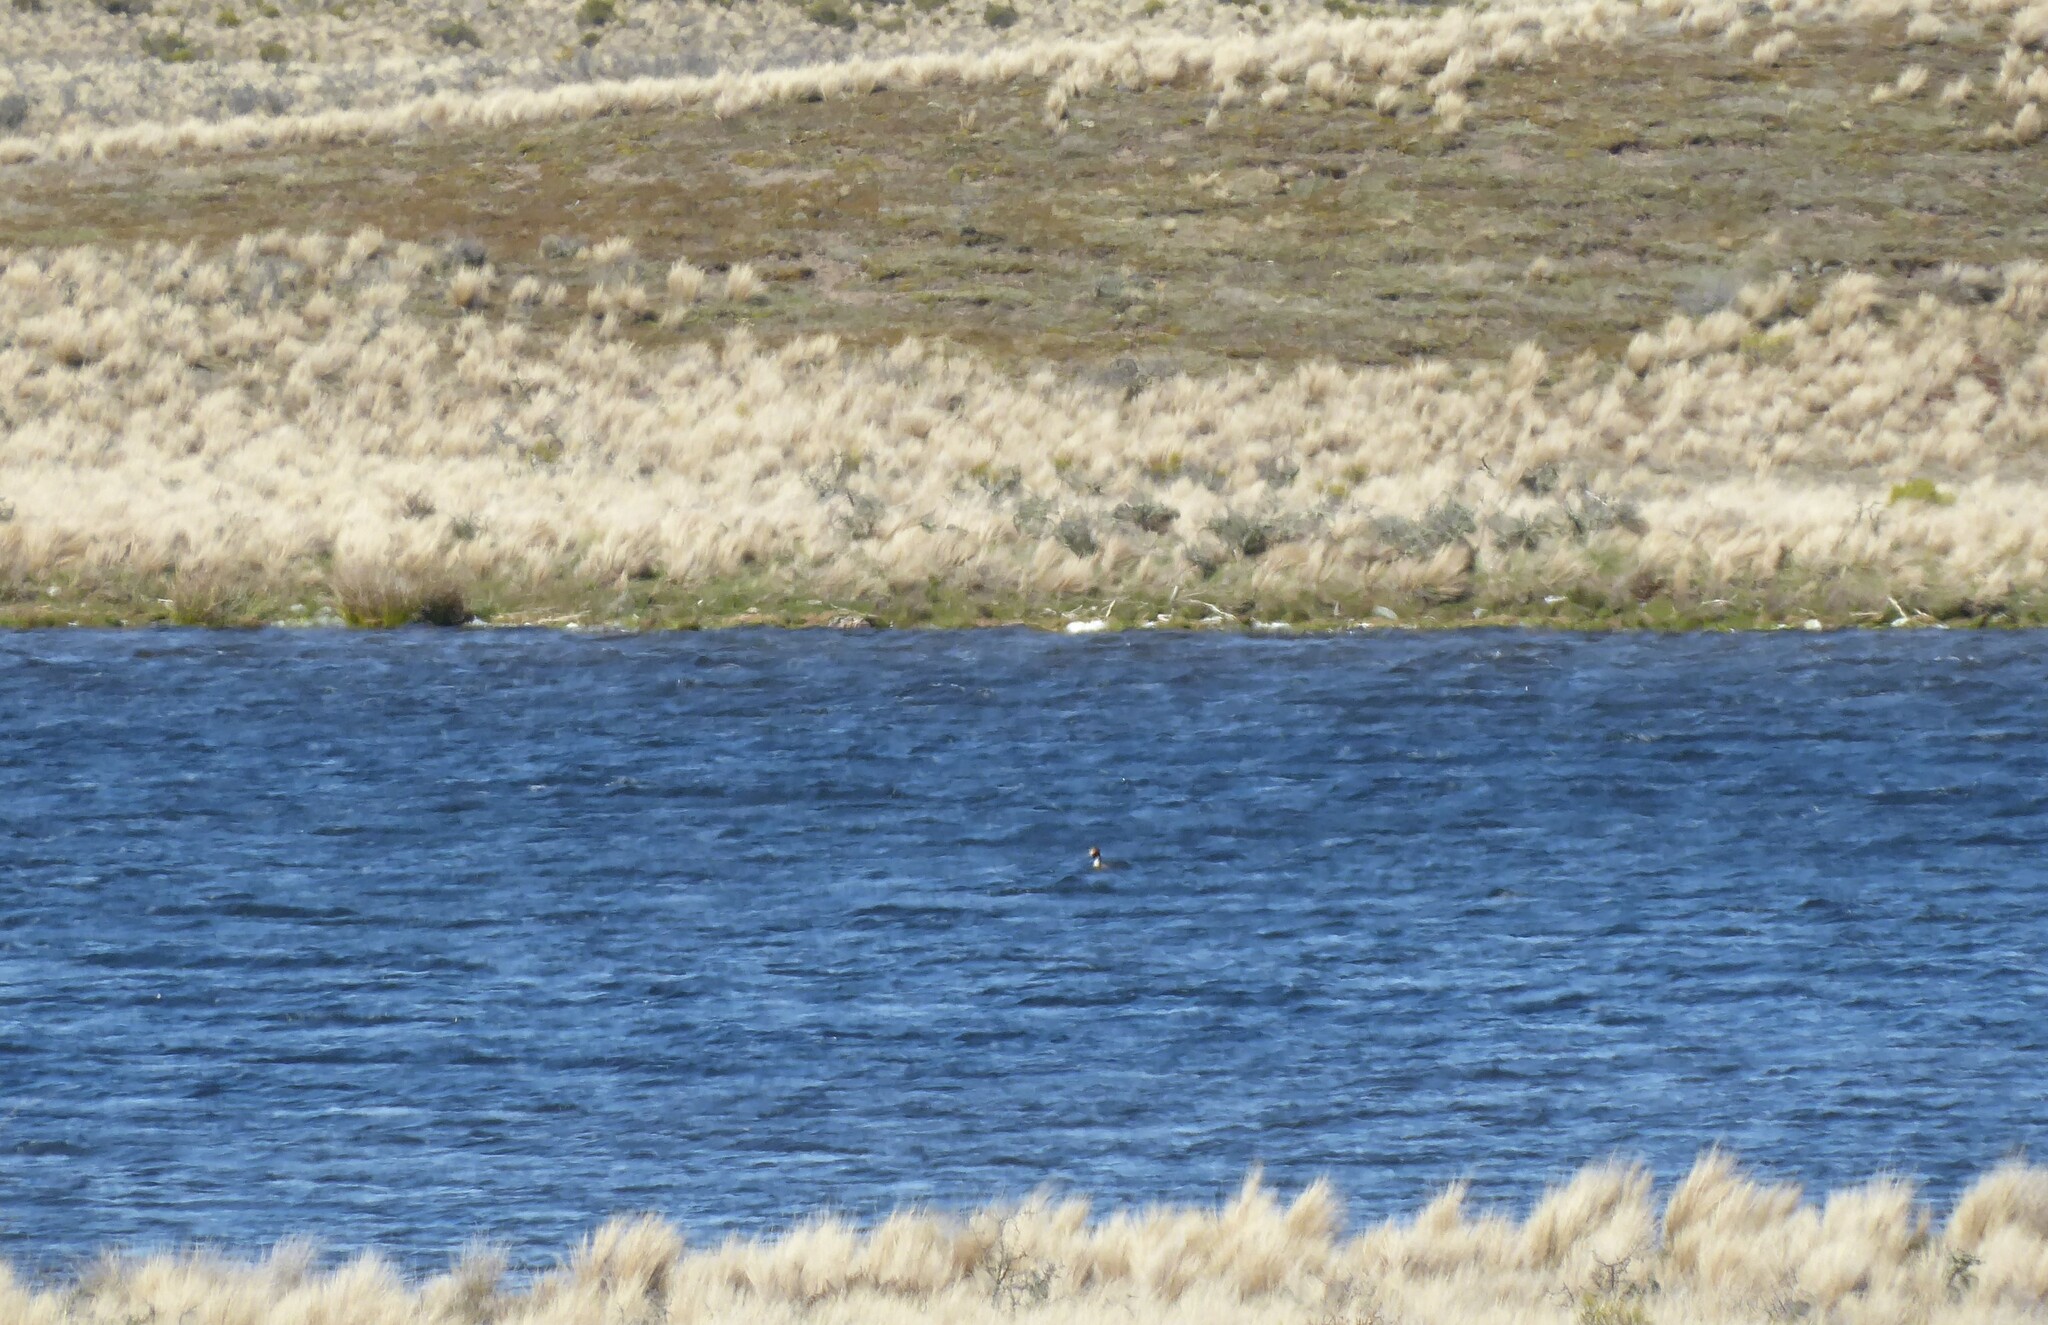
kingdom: Animalia
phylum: Chordata
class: Aves
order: Podicipediformes
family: Podicipedidae
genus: Podiceps
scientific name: Podiceps cristatus
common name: Great crested grebe
